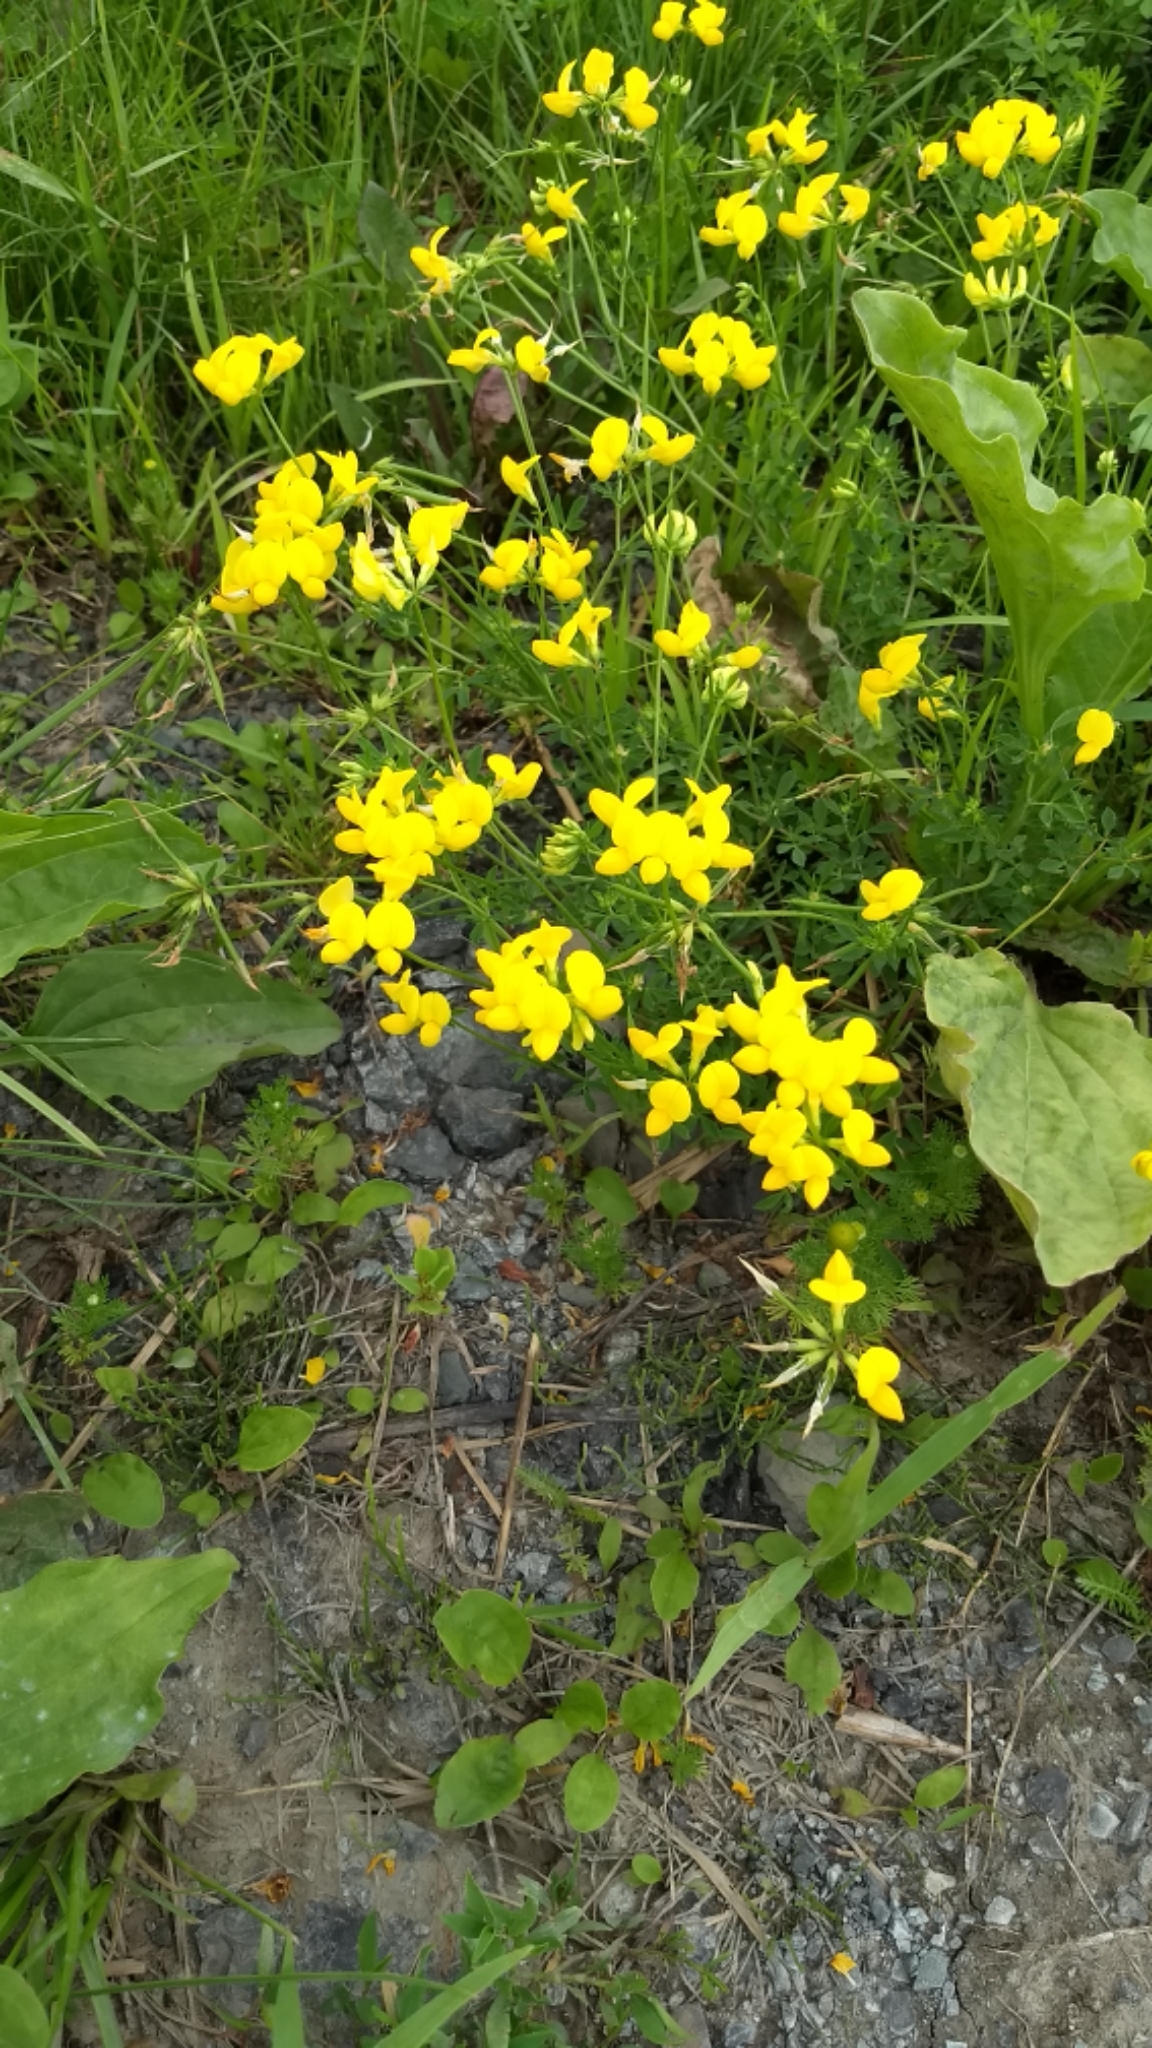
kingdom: Plantae
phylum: Tracheophyta
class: Magnoliopsida
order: Fabales
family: Fabaceae
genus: Lotus
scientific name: Lotus corniculatus
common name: Common bird's-foot-trefoil
